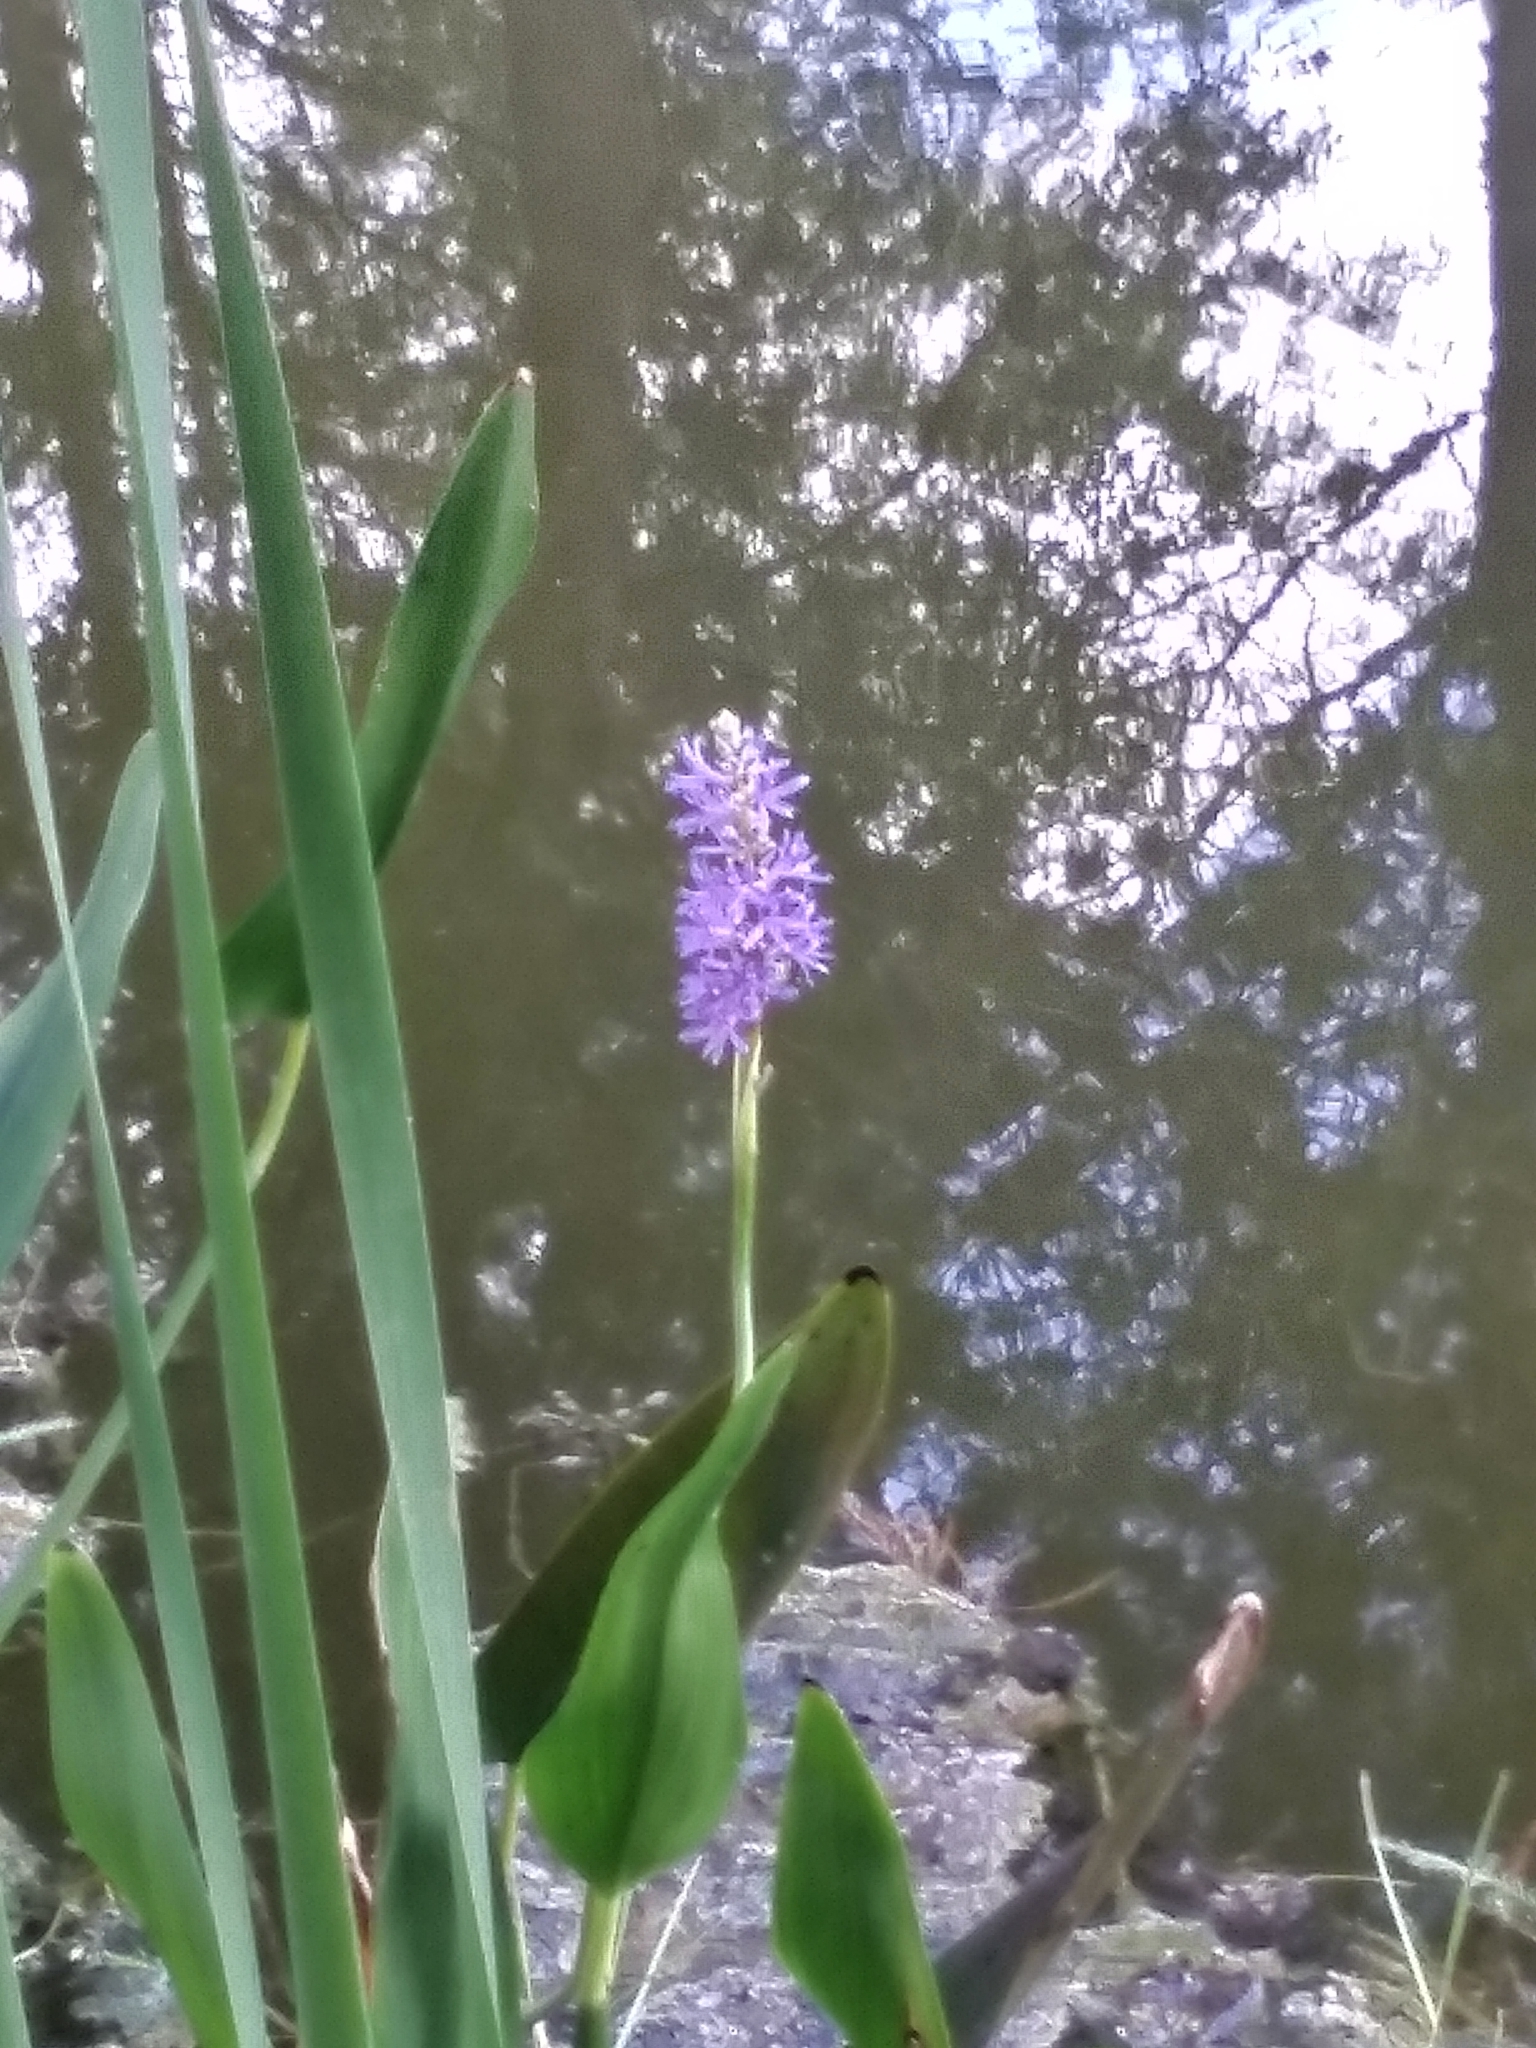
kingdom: Plantae
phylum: Tracheophyta
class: Liliopsida
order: Commelinales
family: Pontederiaceae
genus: Pontederia
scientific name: Pontederia cordata
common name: Pickerelweed
